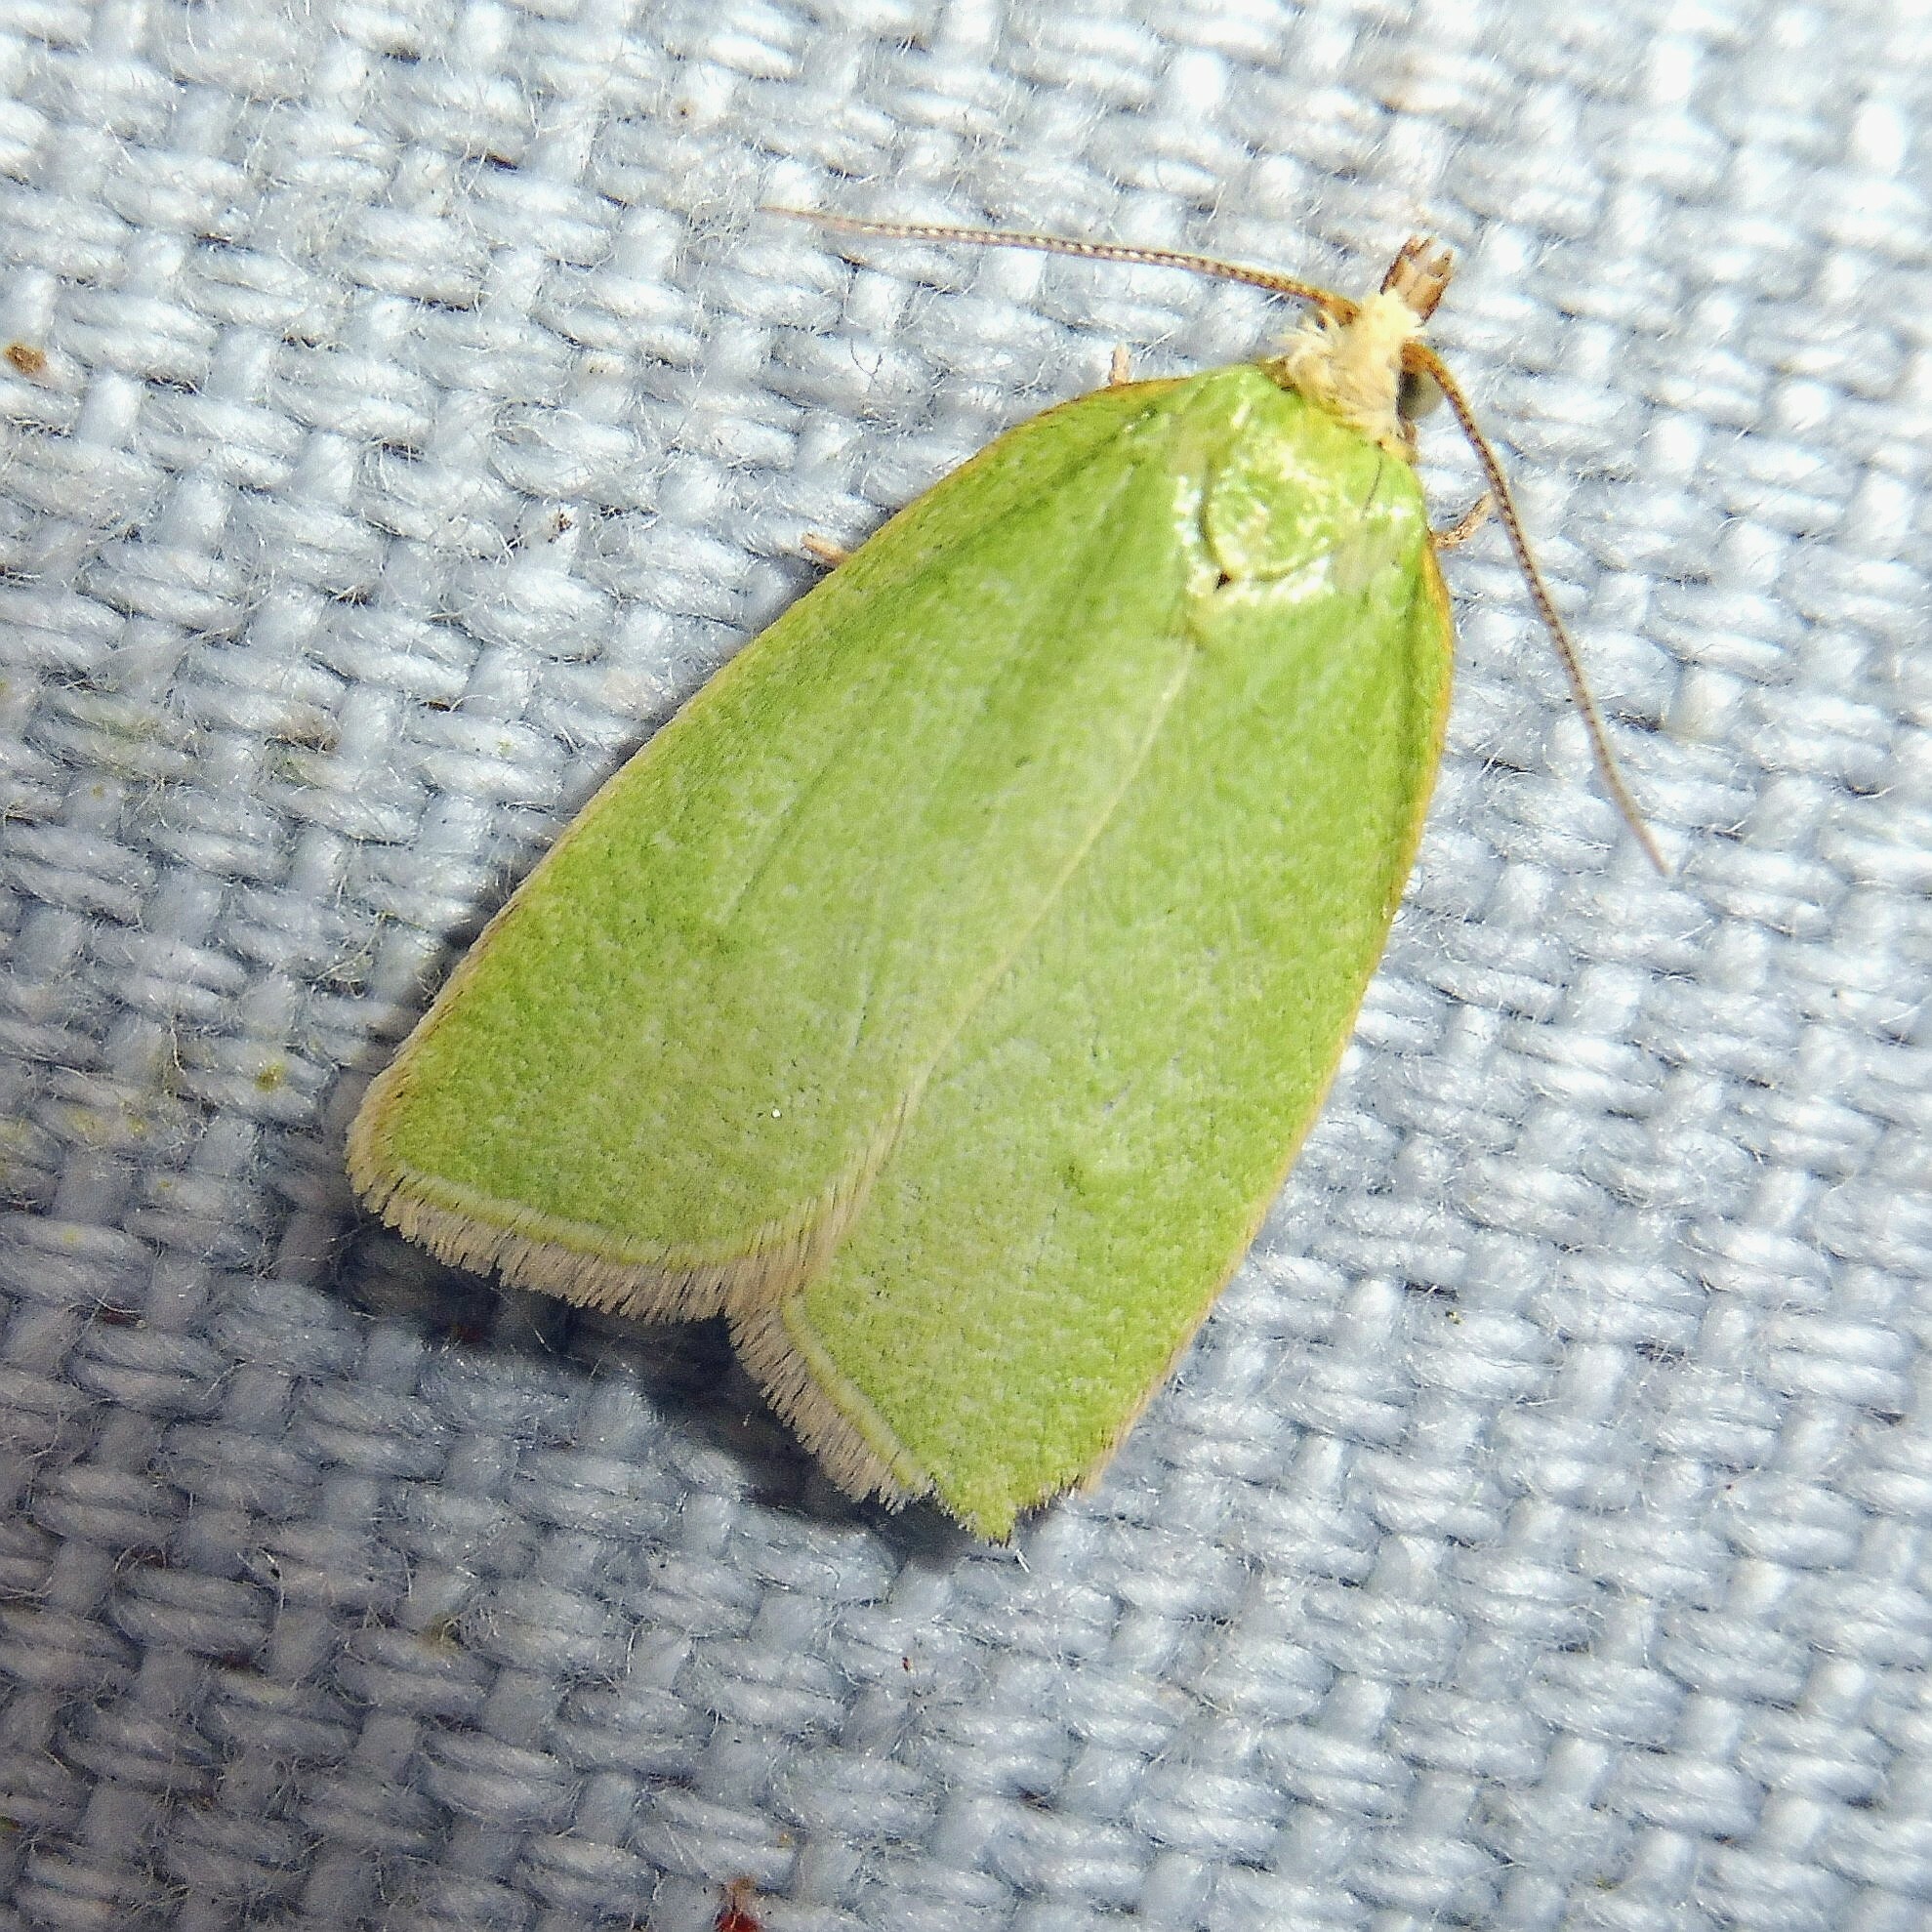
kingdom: Animalia
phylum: Arthropoda
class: Insecta
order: Lepidoptera
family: Tortricidae
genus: Tortrix
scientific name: Tortrix viridana
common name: Green oak tortrix
